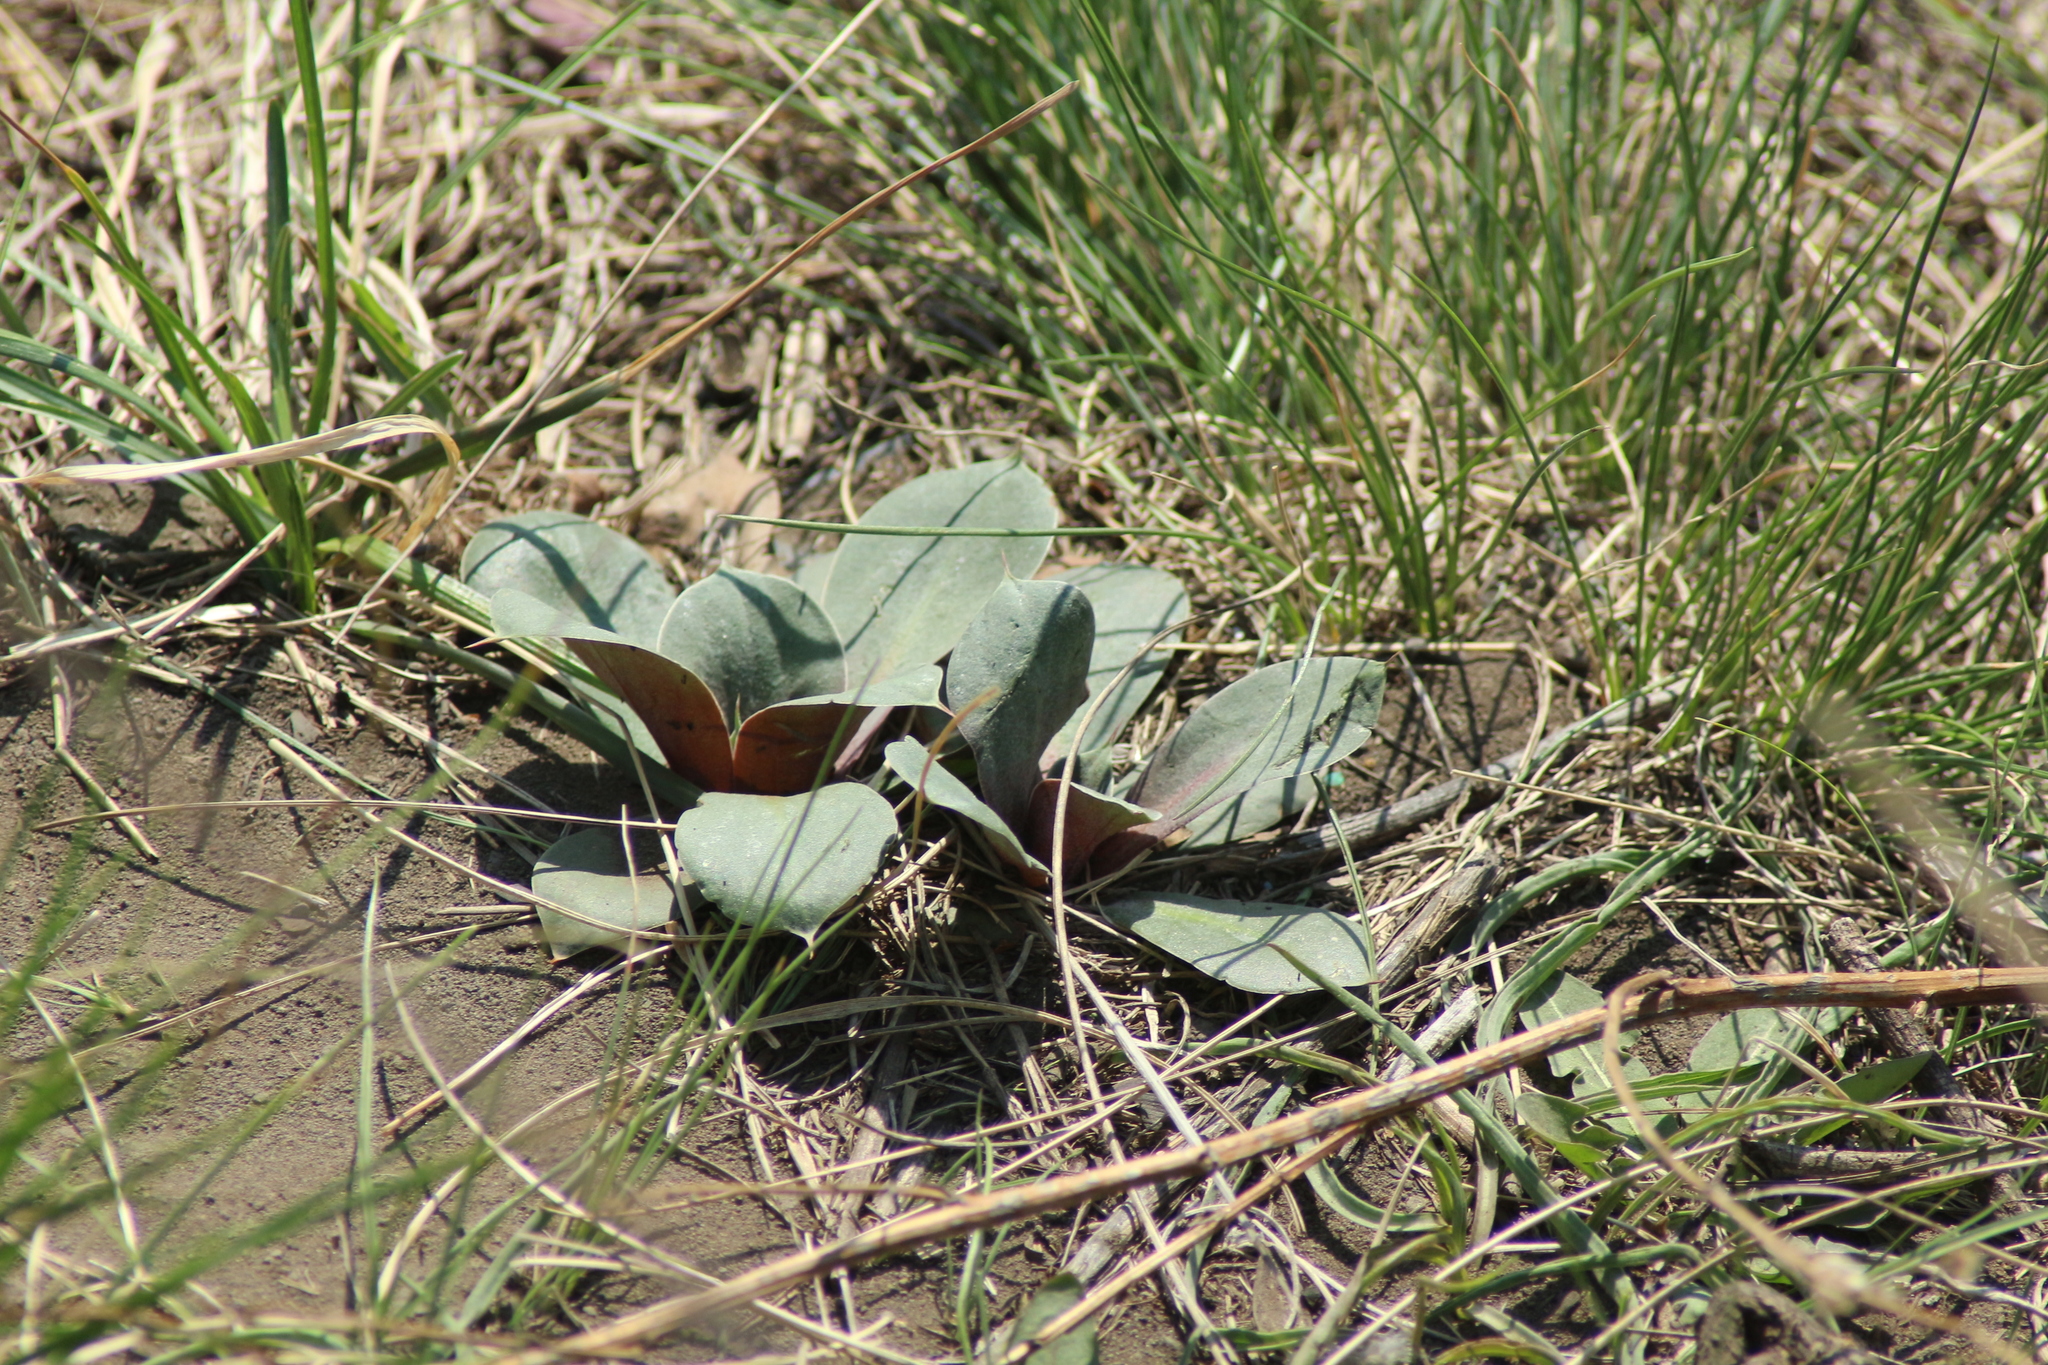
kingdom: Plantae
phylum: Tracheophyta
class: Magnoliopsida
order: Caryophyllales
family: Plumbaginaceae
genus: Goniolimon
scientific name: Goniolimon speciosum
